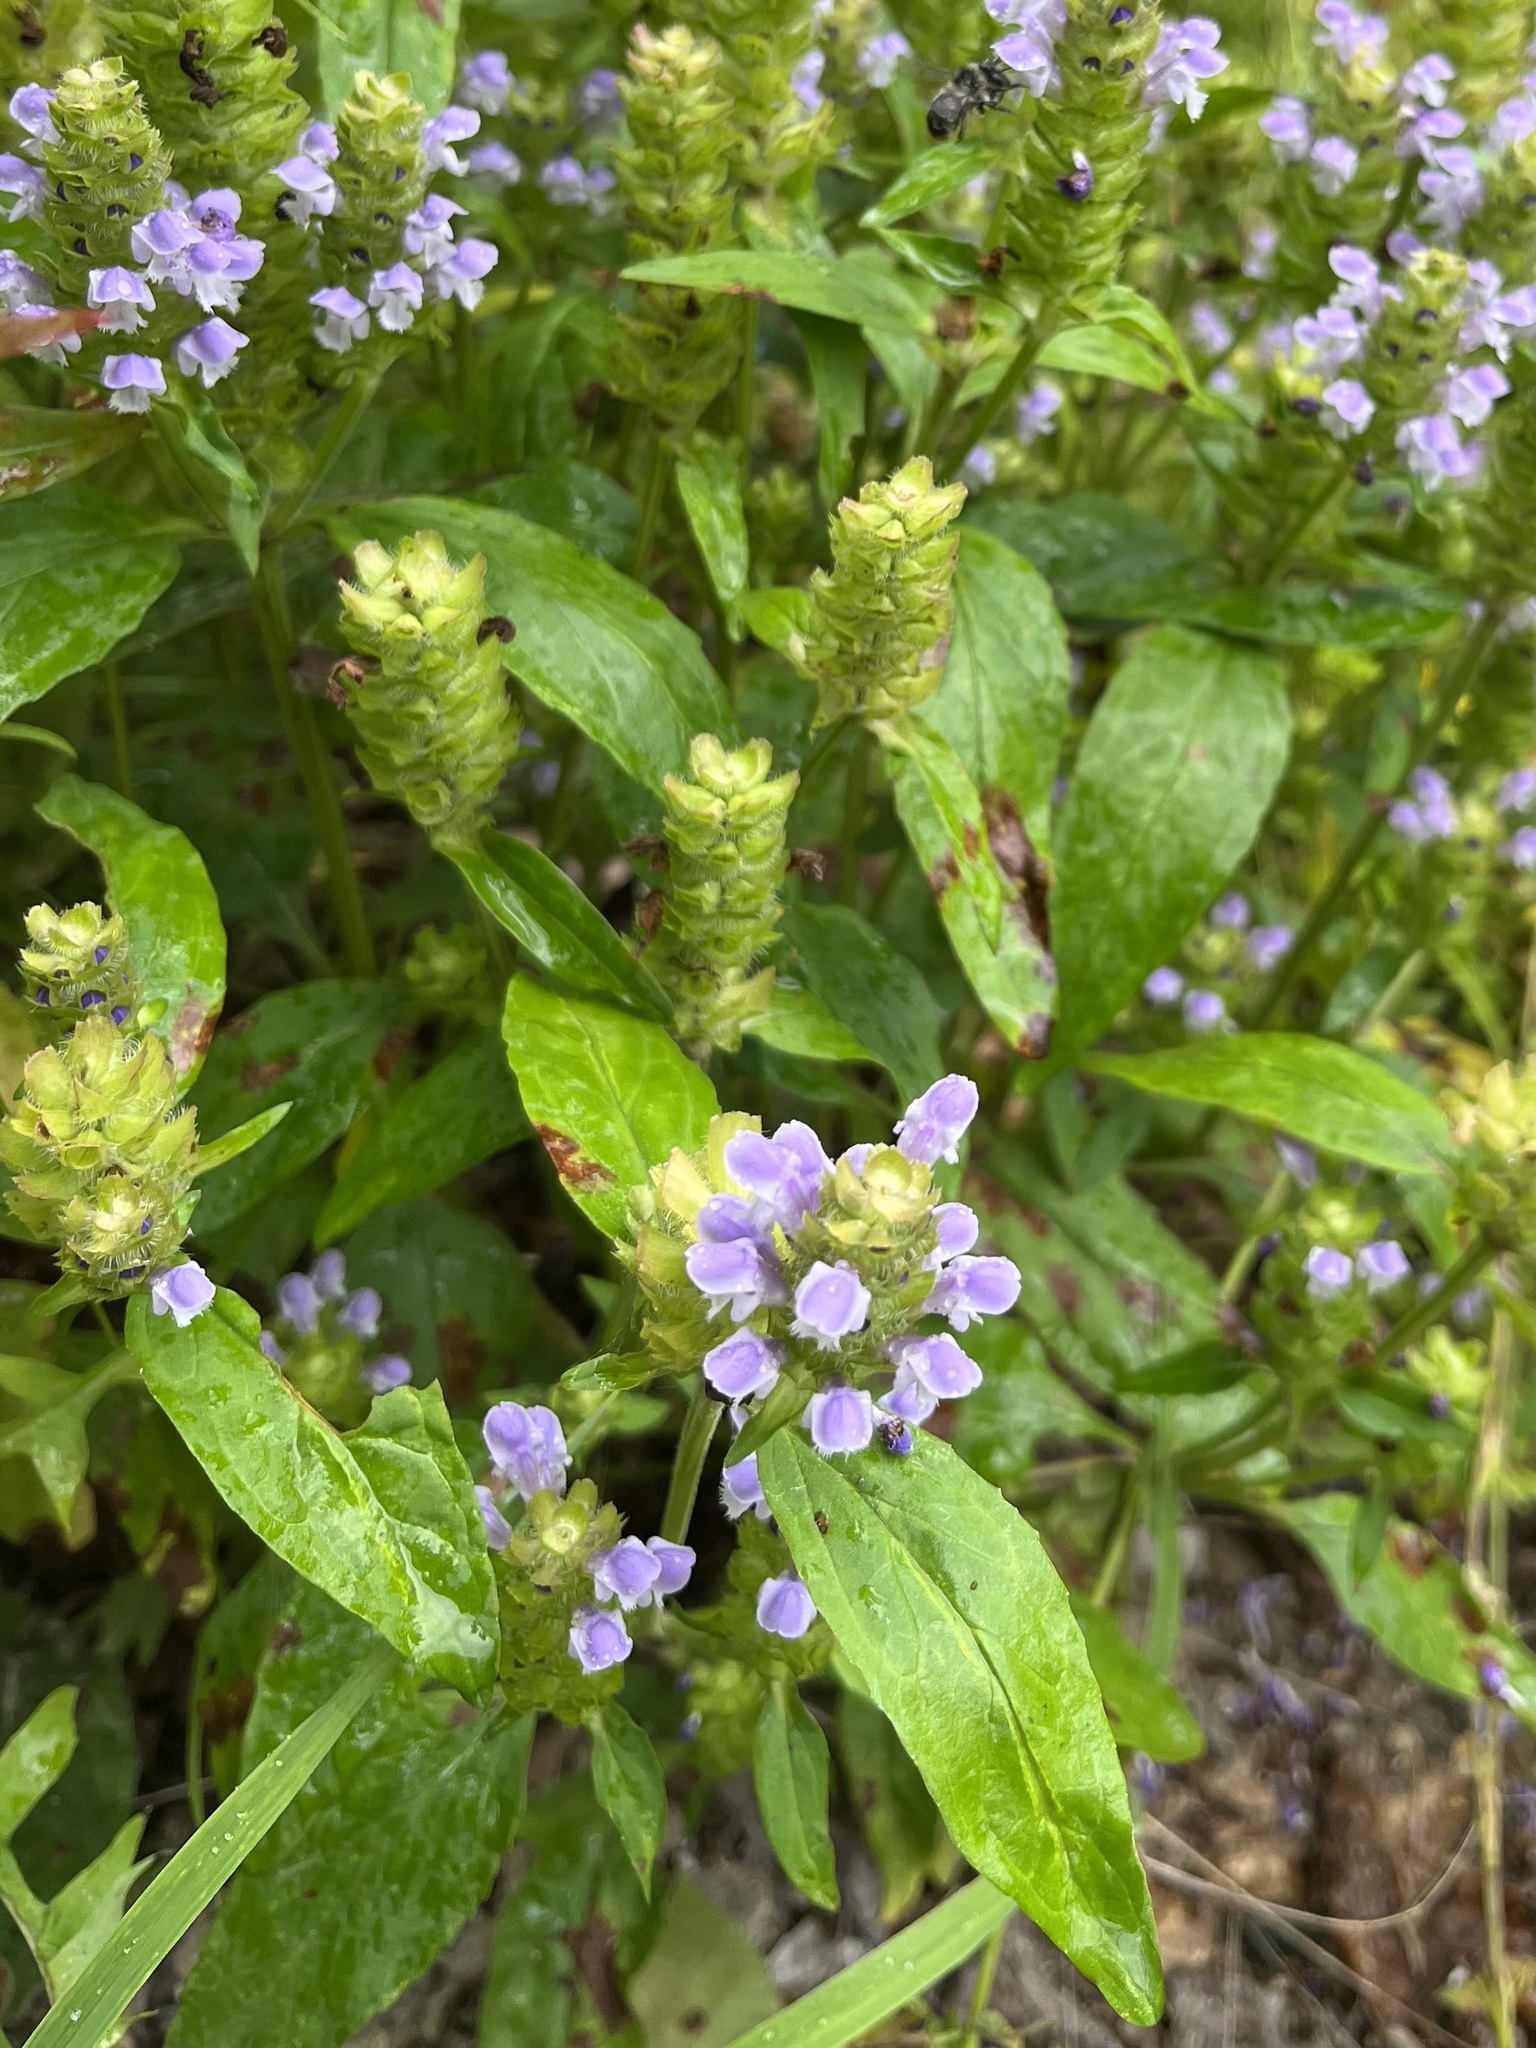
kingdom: Plantae
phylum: Tracheophyta
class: Magnoliopsida
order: Lamiales
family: Lamiaceae
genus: Prunella
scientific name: Prunella vulgaris
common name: Heal-all
